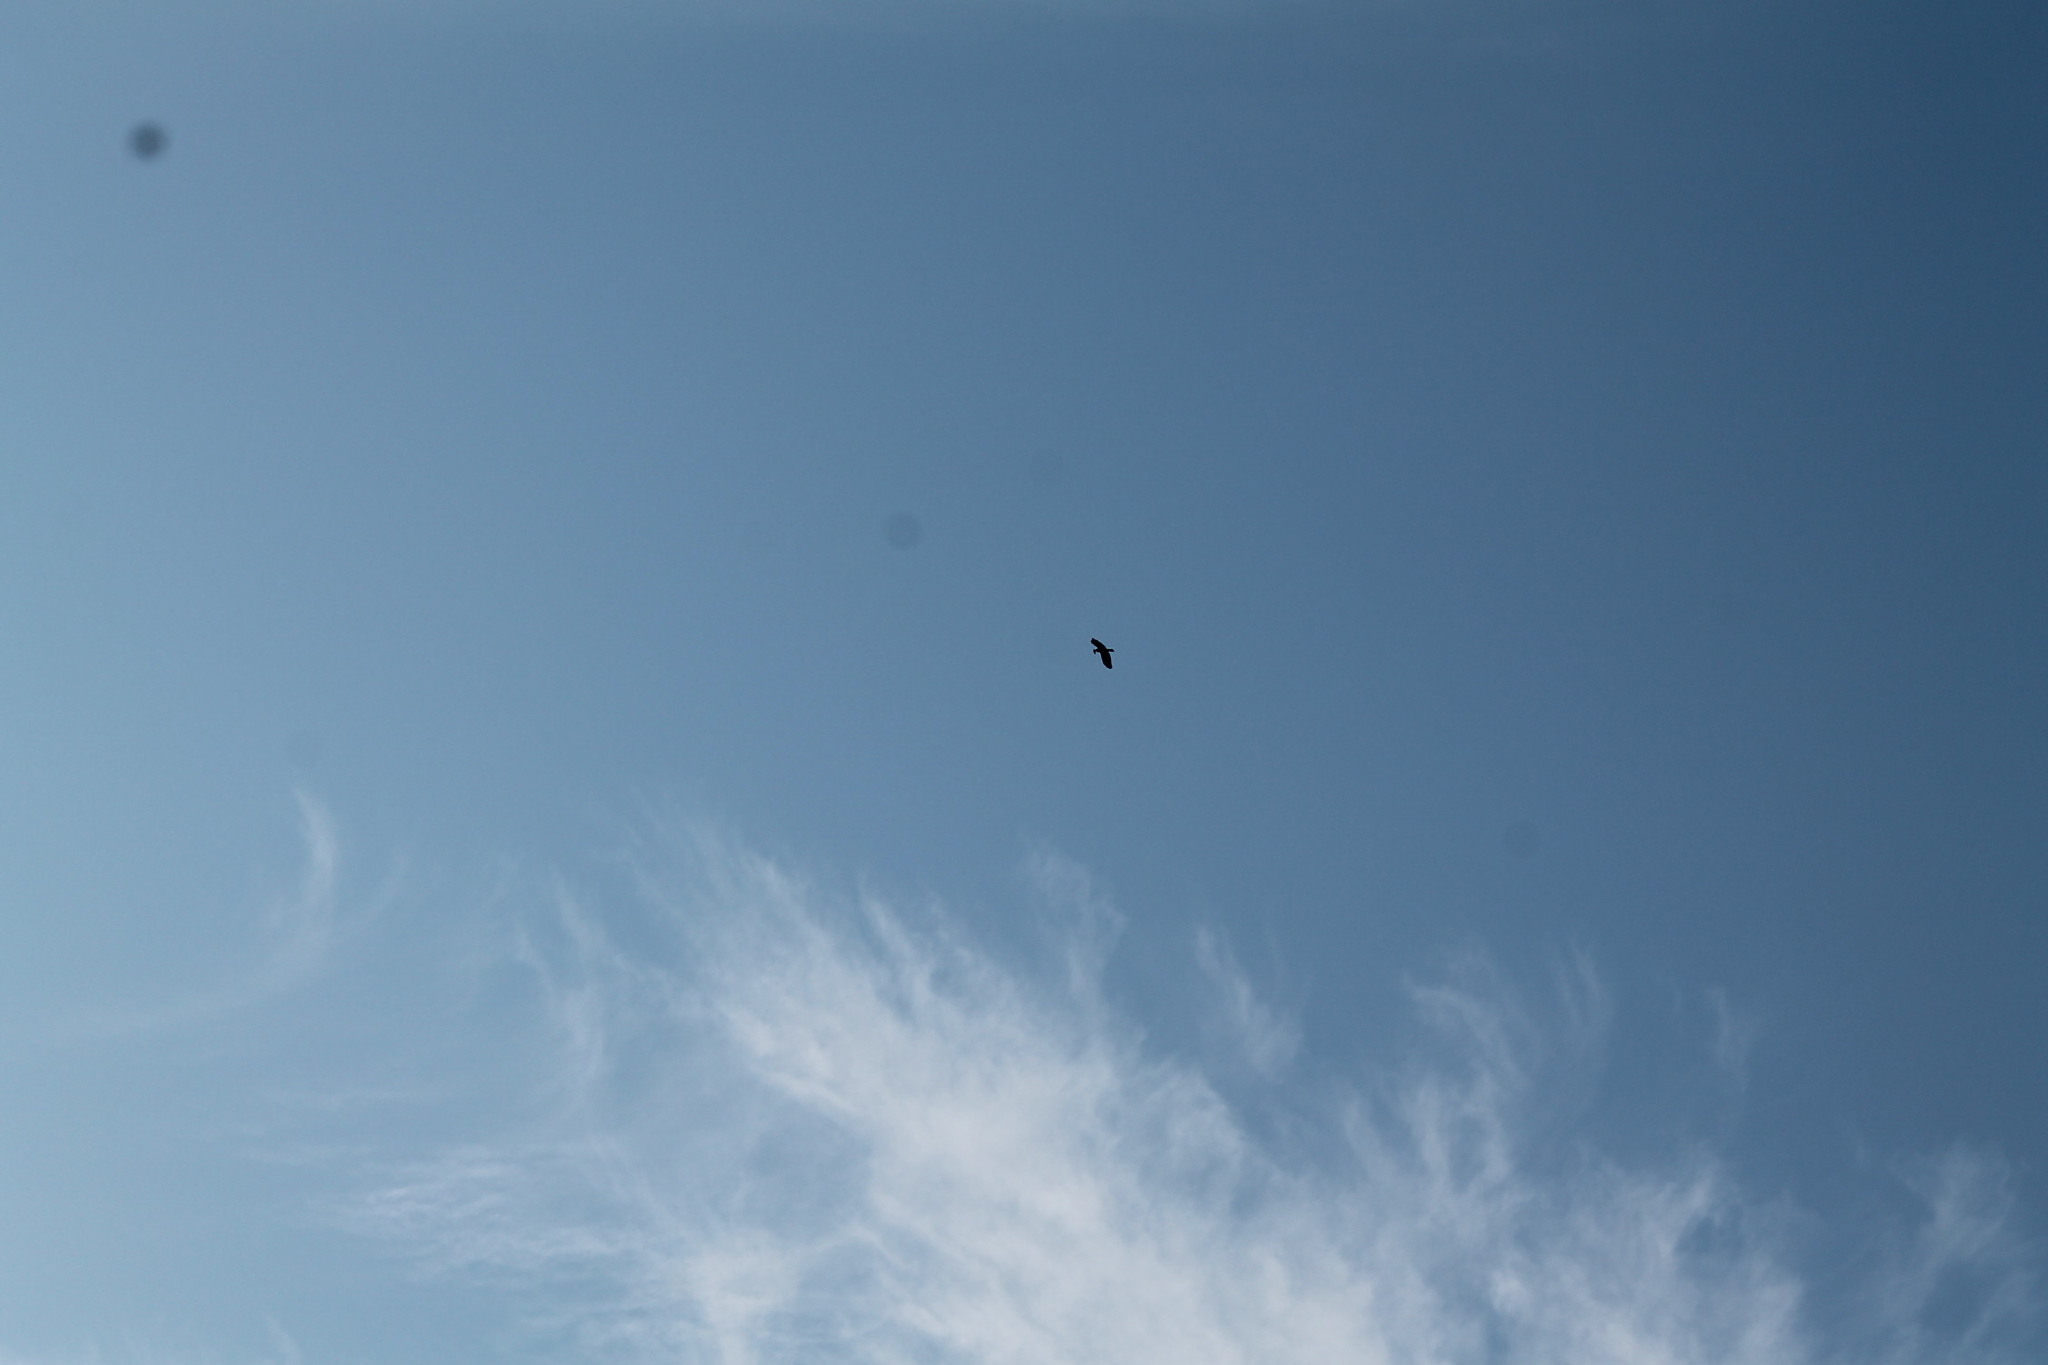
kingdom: Animalia
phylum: Chordata
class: Aves
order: Passeriformes
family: Corvidae
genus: Corvus
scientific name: Corvus brachyrhynchos
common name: American crow
